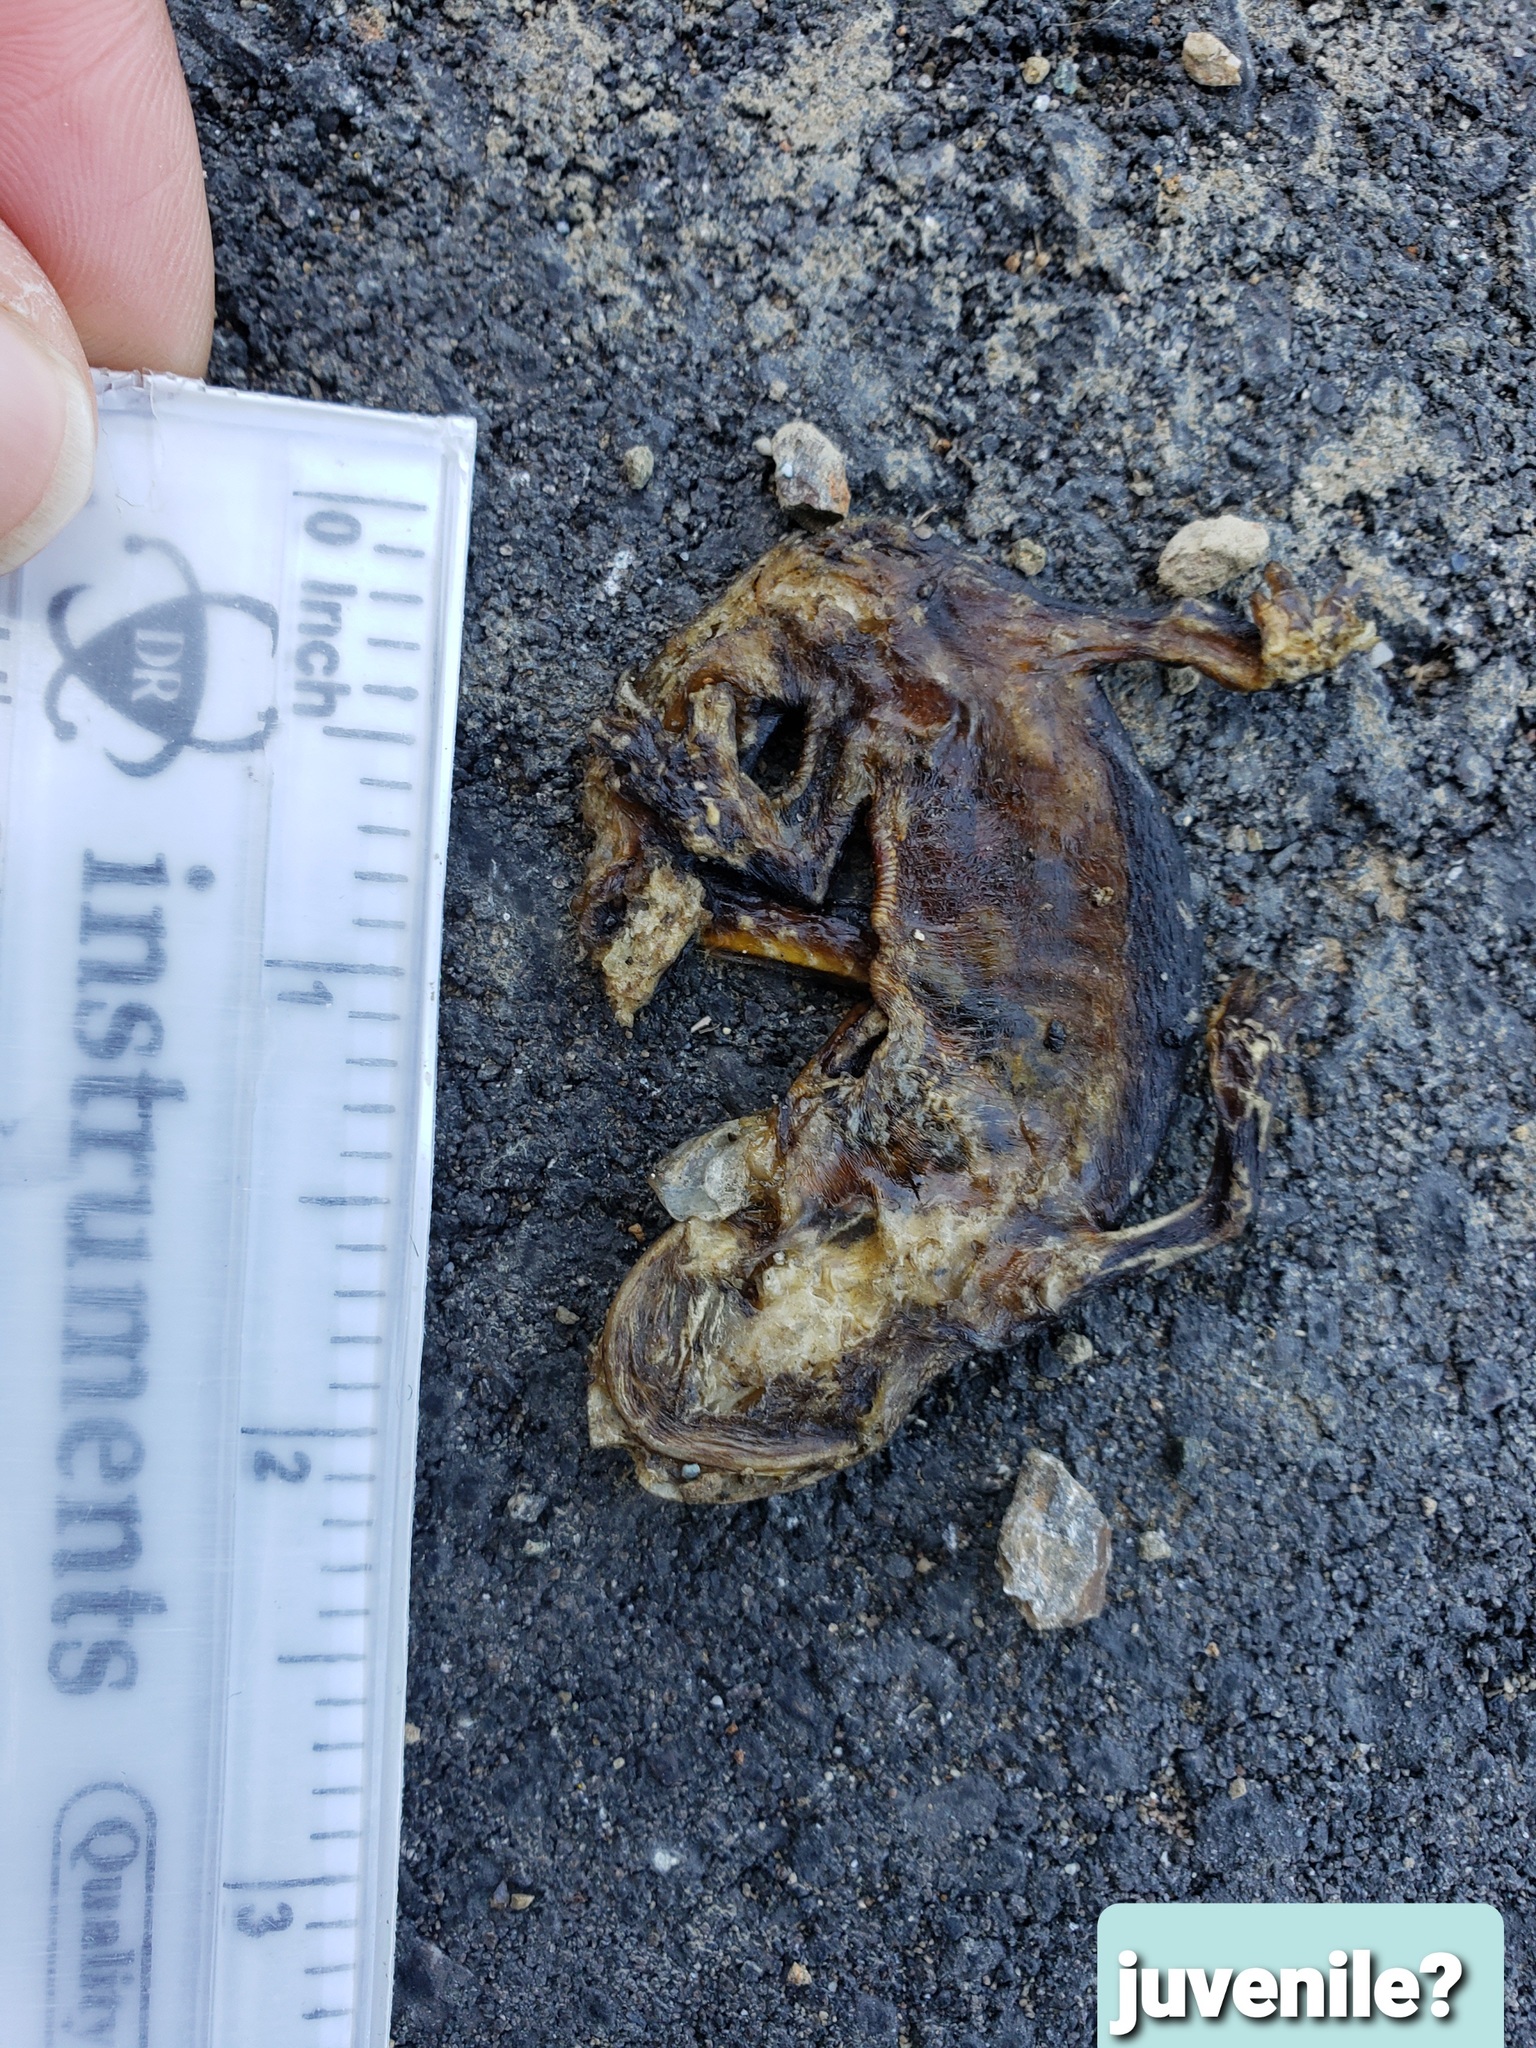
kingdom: Animalia
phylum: Chordata
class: Amphibia
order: Caudata
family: Salamandridae
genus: Taricha
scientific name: Taricha
